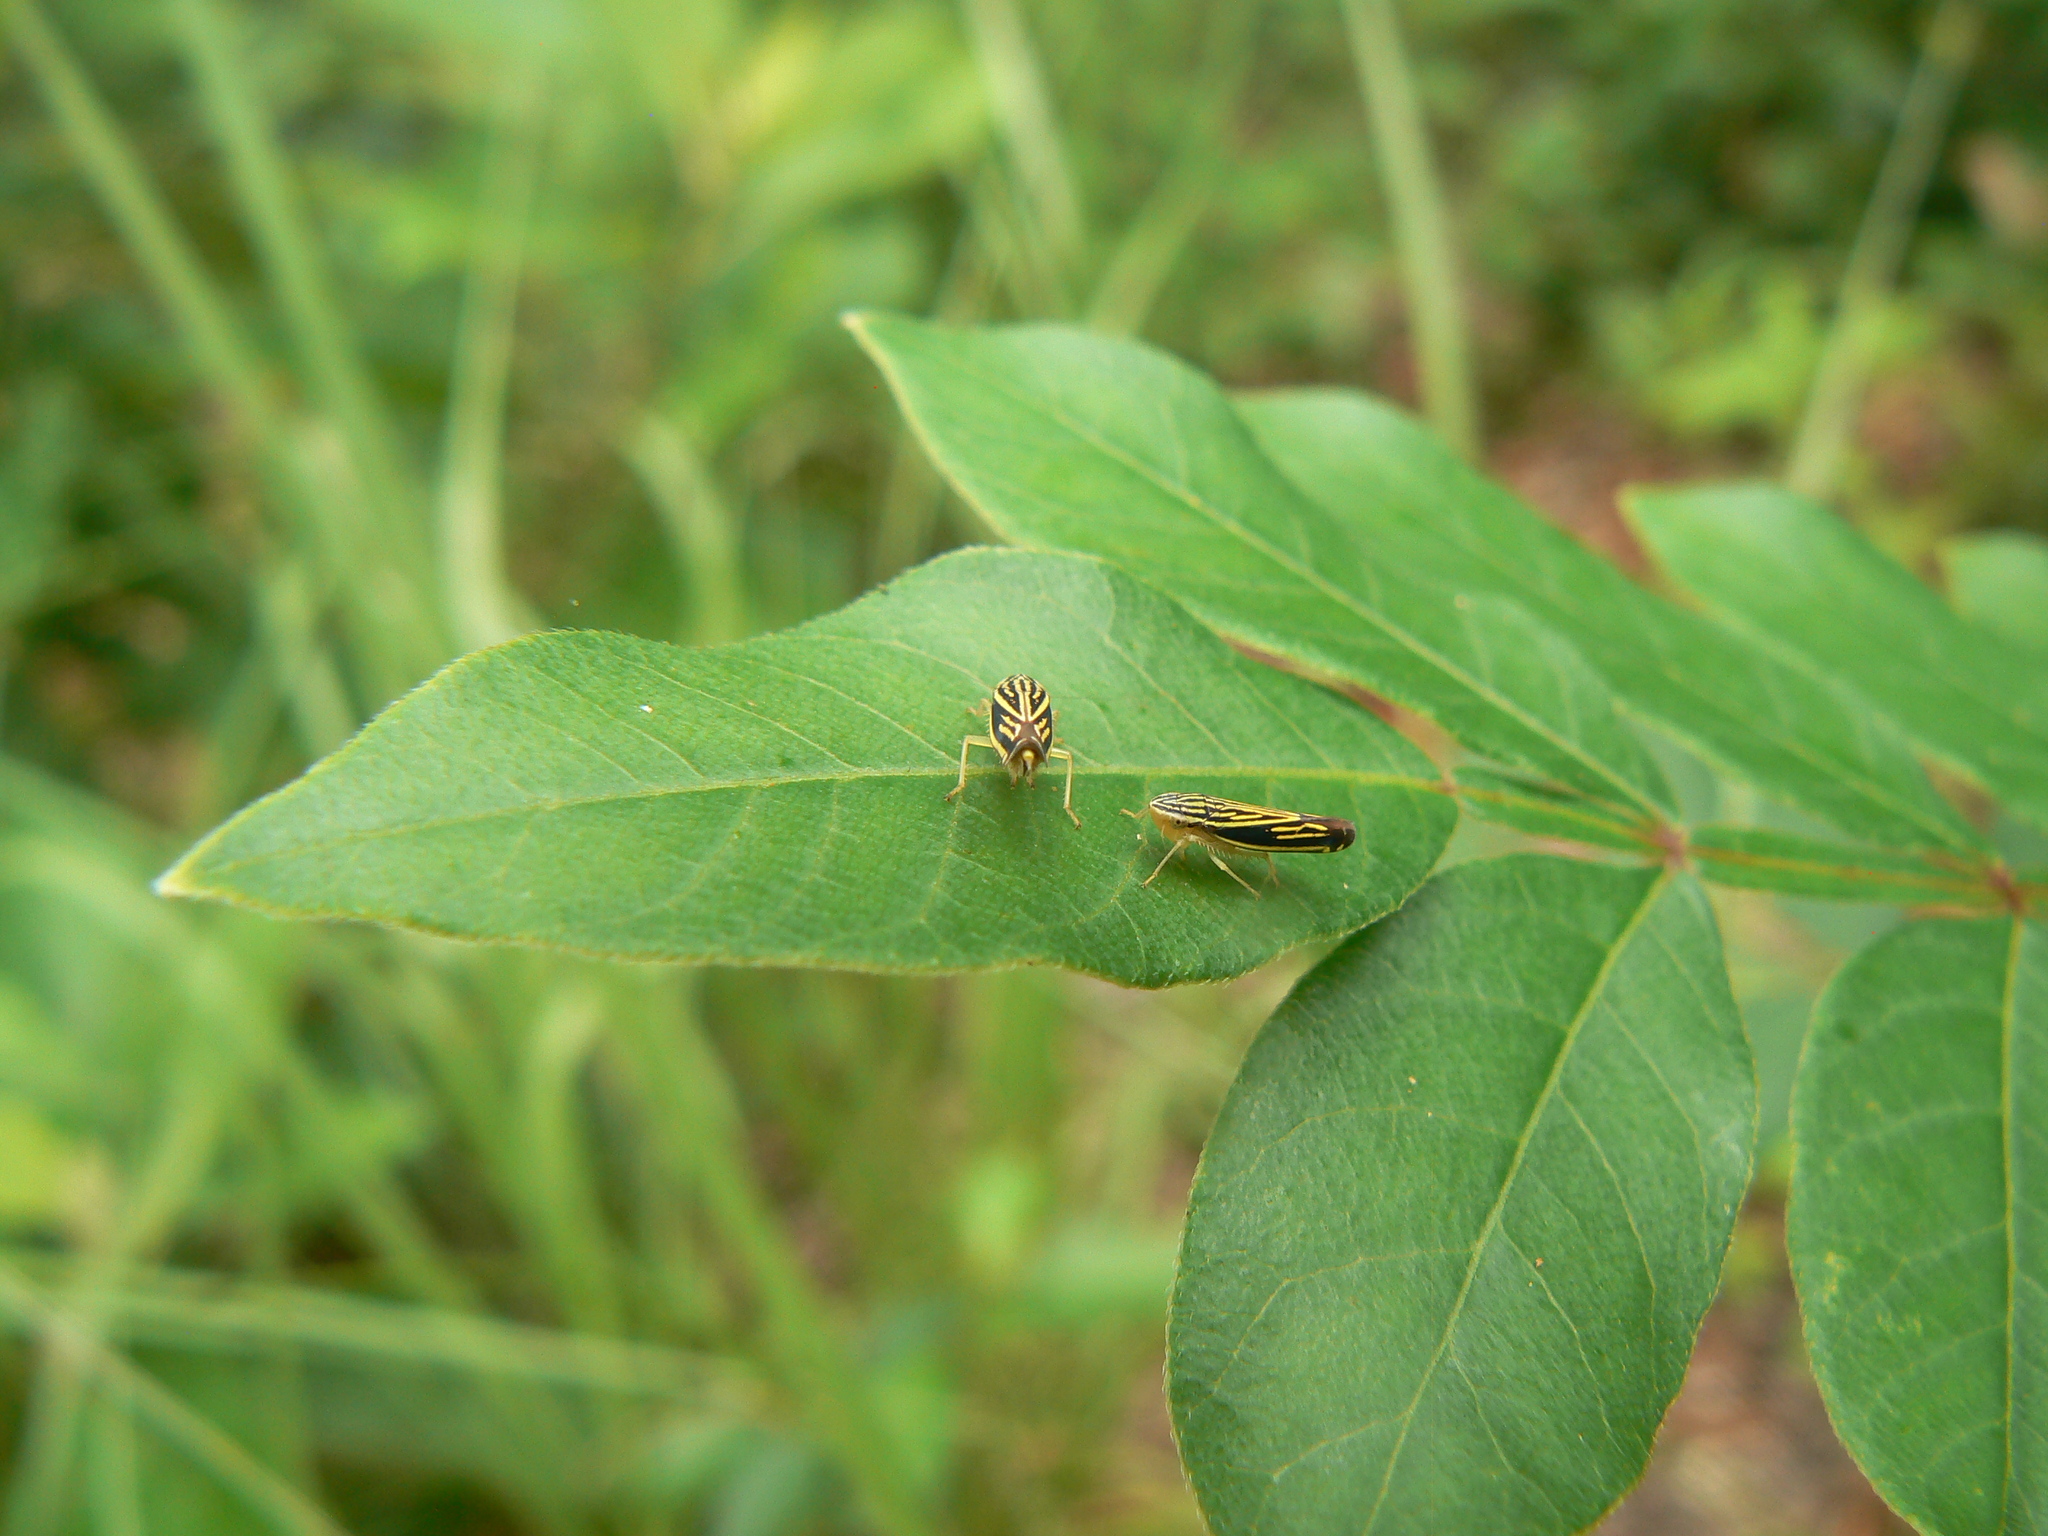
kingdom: Animalia
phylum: Arthropoda
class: Insecta
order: Hemiptera
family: Cicadellidae
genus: Sibovia
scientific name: Sibovia occatoria
